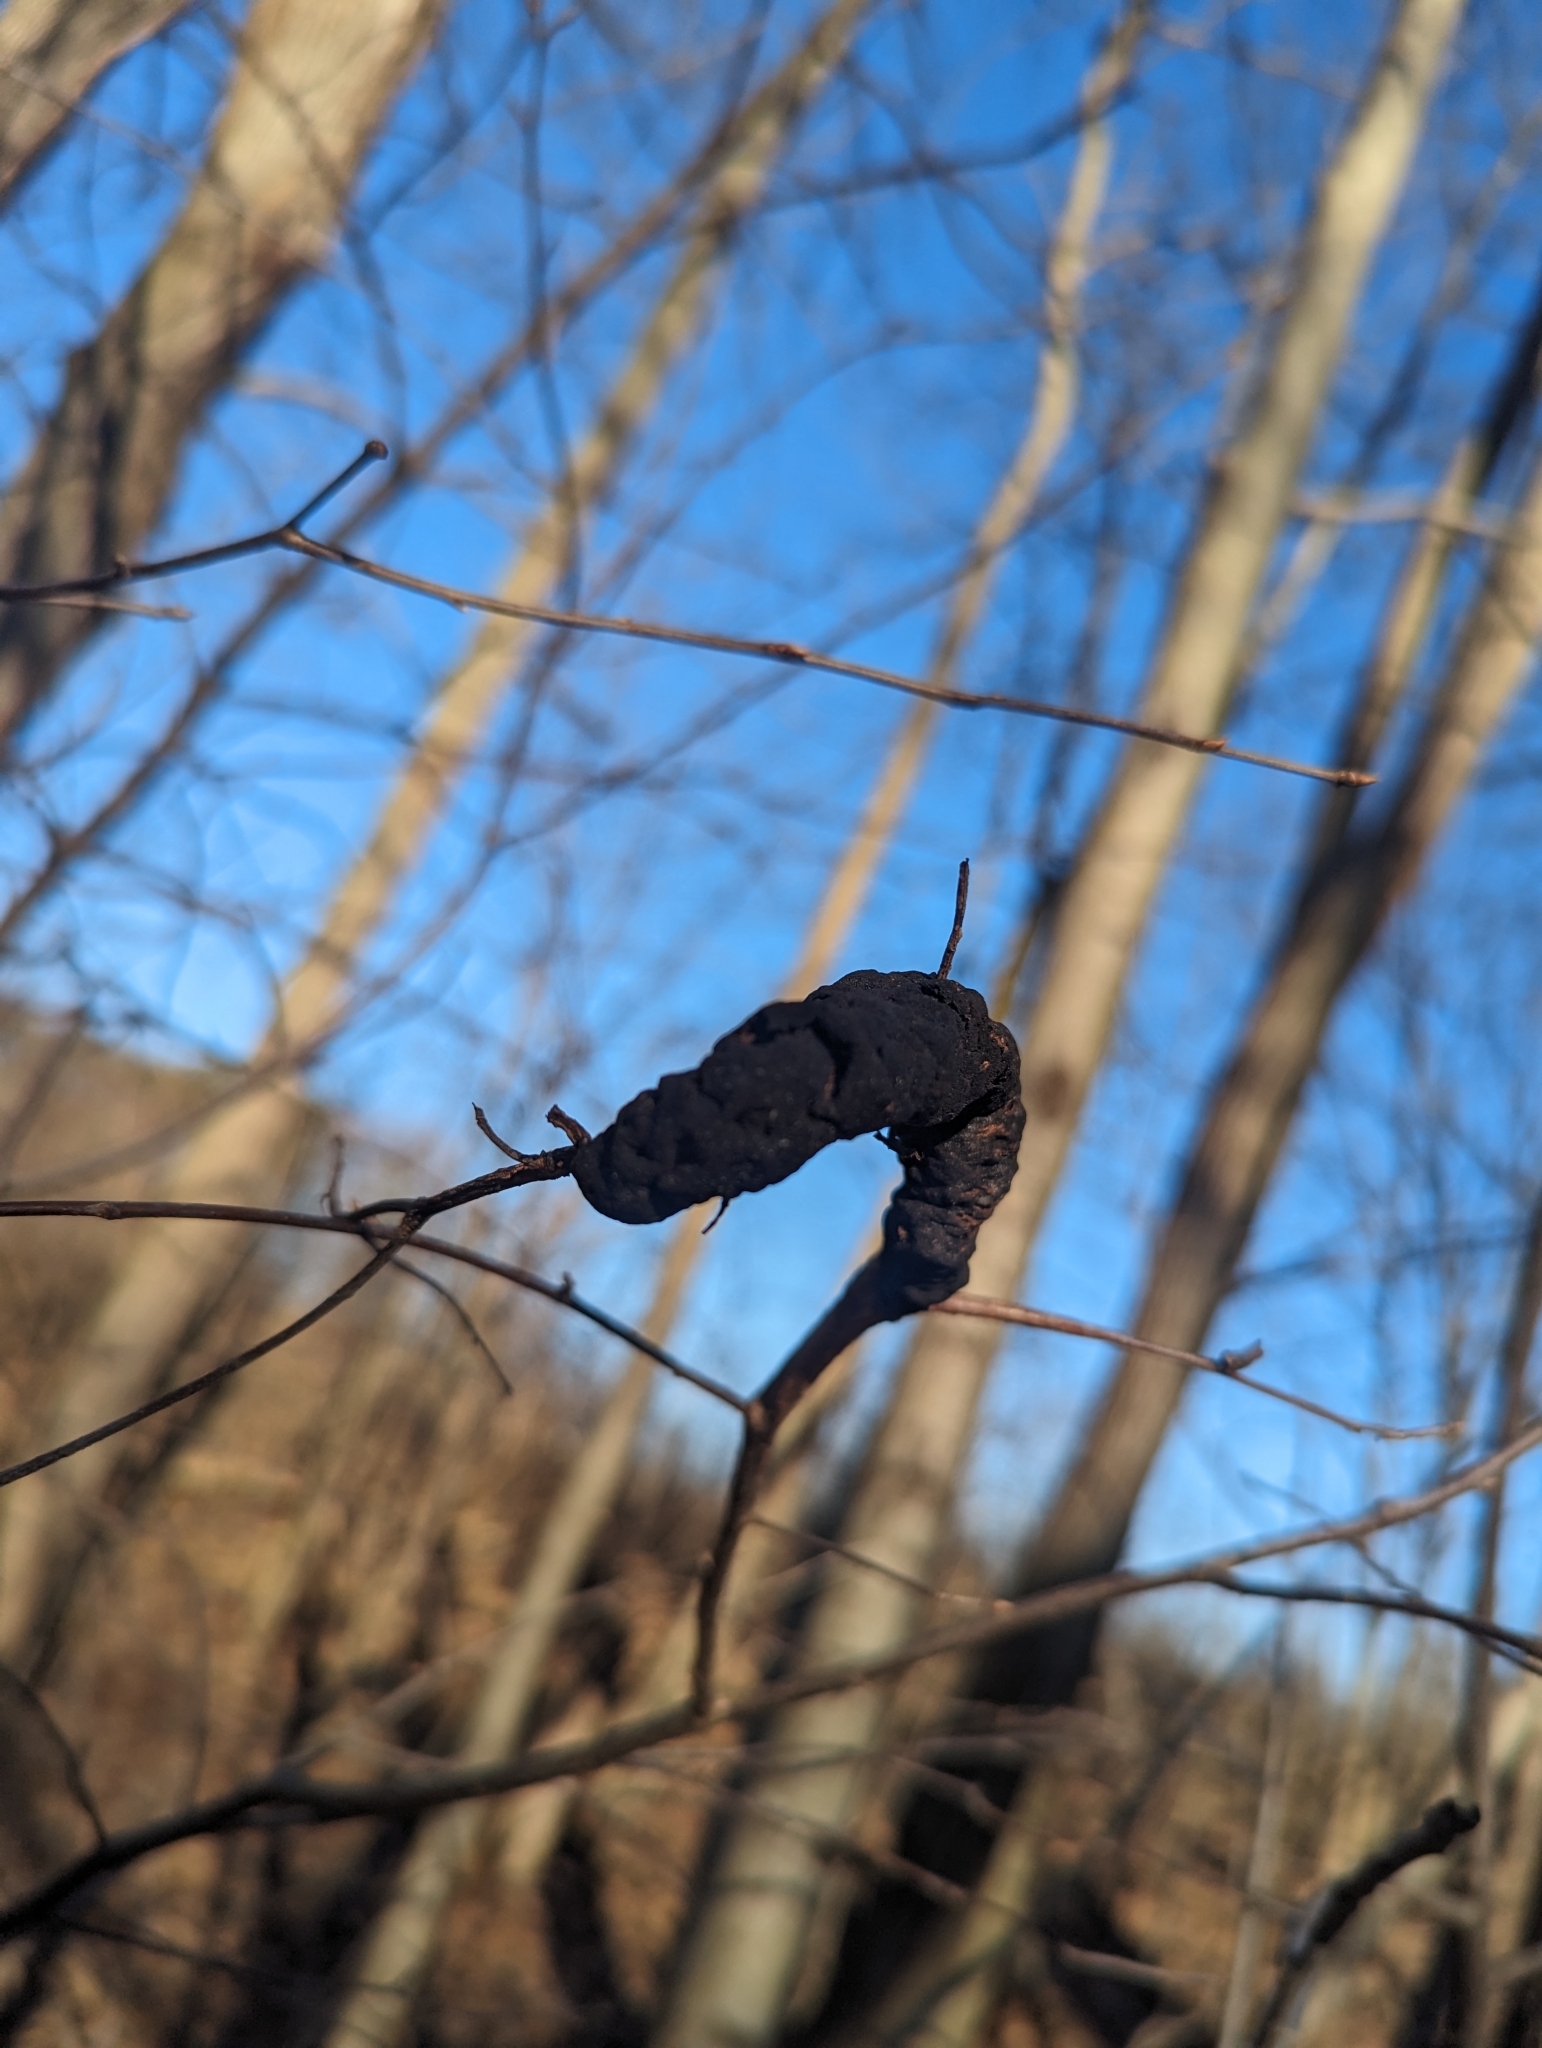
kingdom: Fungi
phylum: Ascomycota
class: Dothideomycetes
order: Venturiales
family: Venturiaceae
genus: Apiosporina
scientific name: Apiosporina morbosa
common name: Black knot
